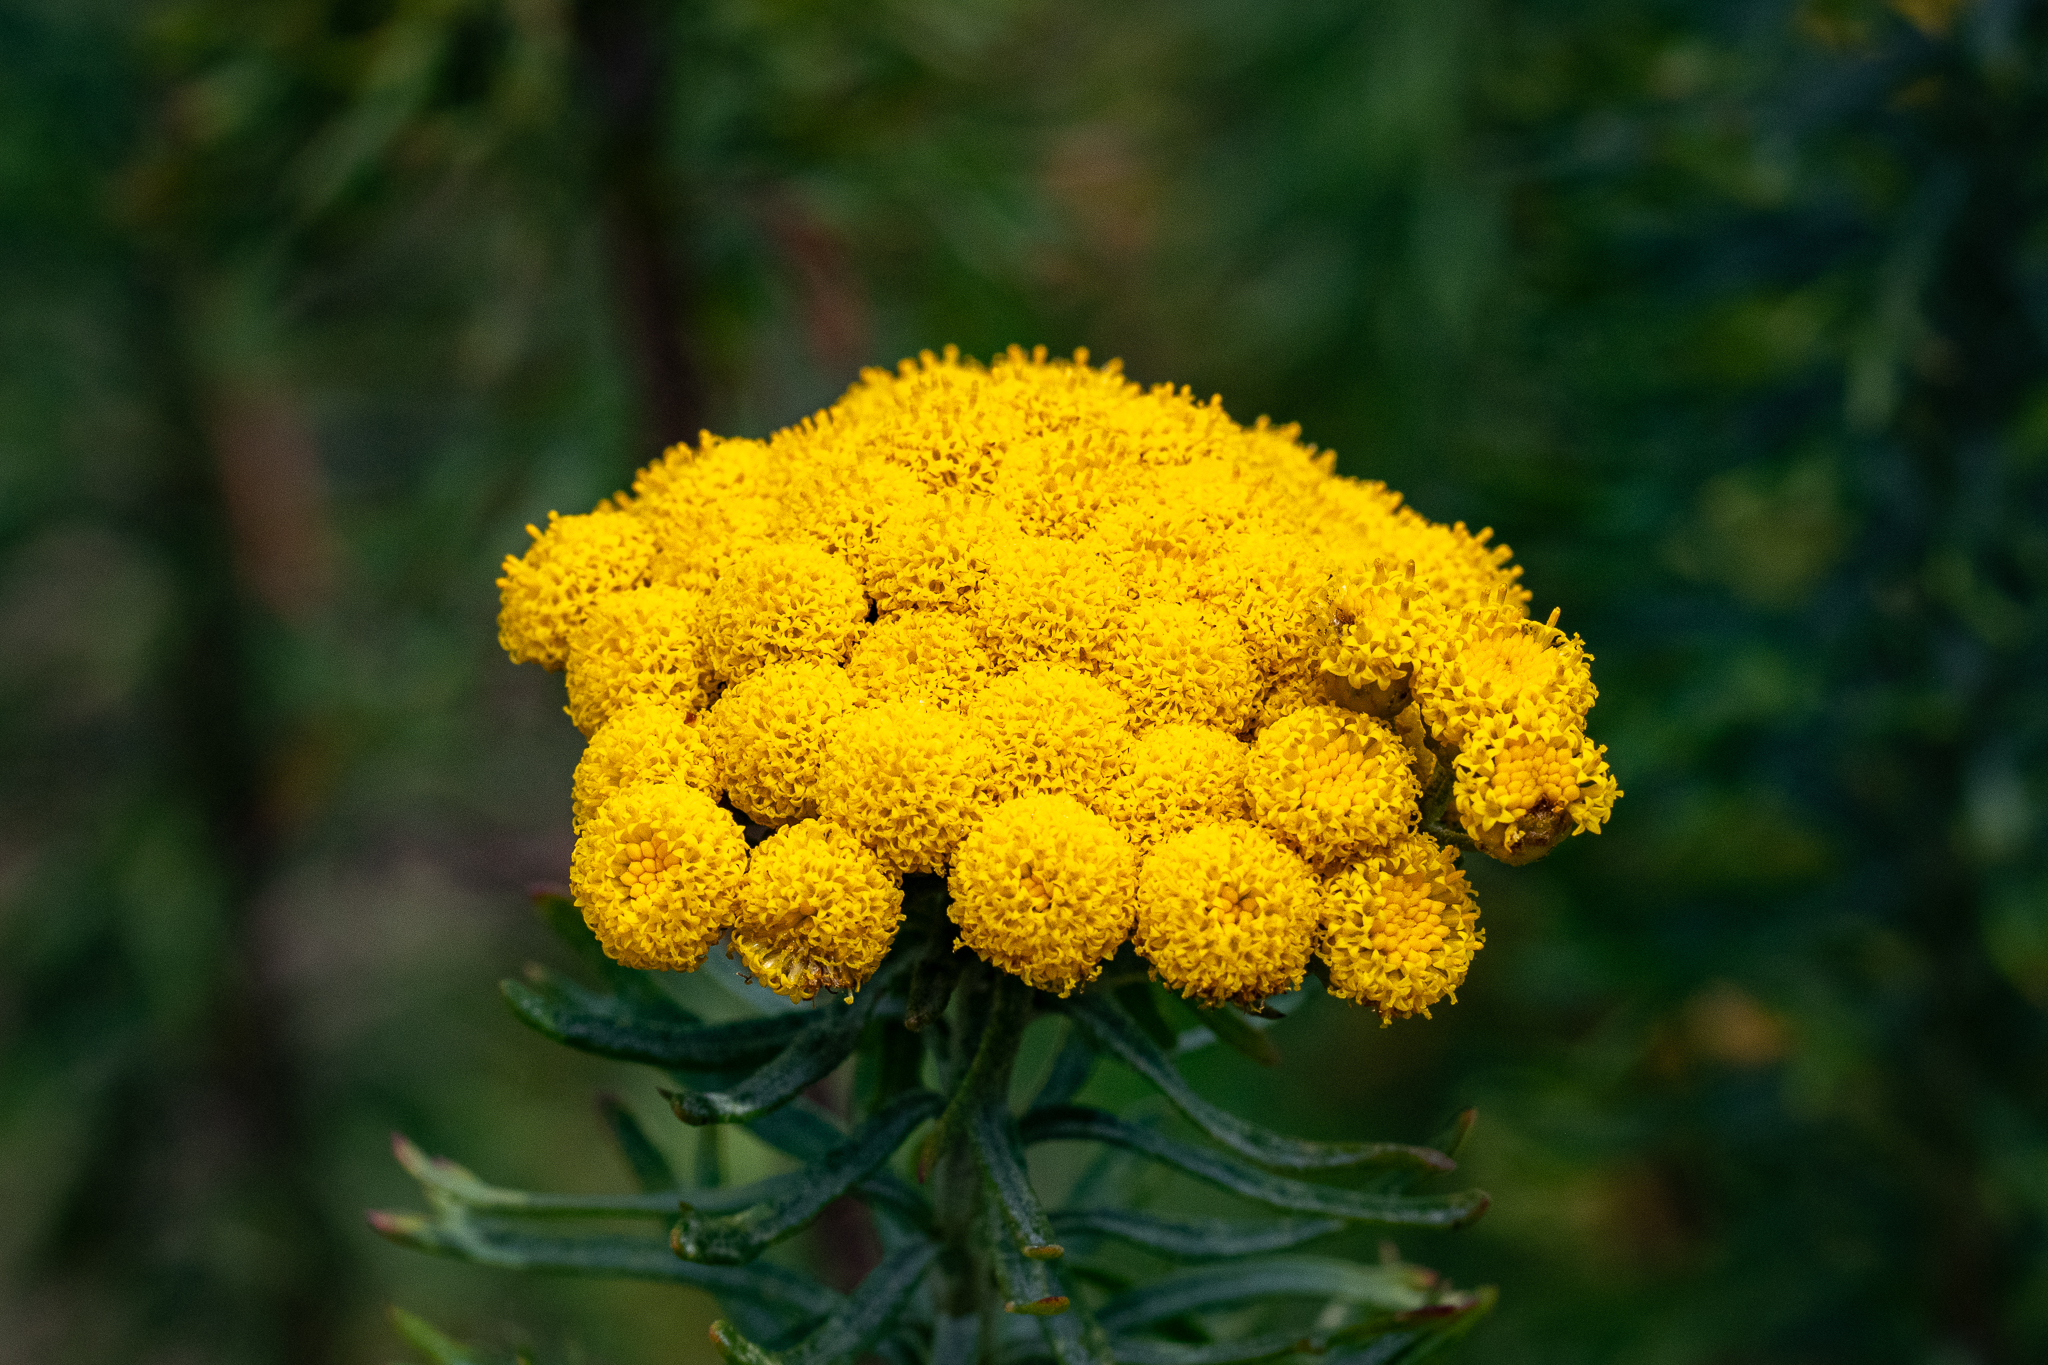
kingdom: Plantae
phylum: Tracheophyta
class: Magnoliopsida
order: Asterales
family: Asteraceae
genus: Athanasia
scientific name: Athanasia trifurcata
